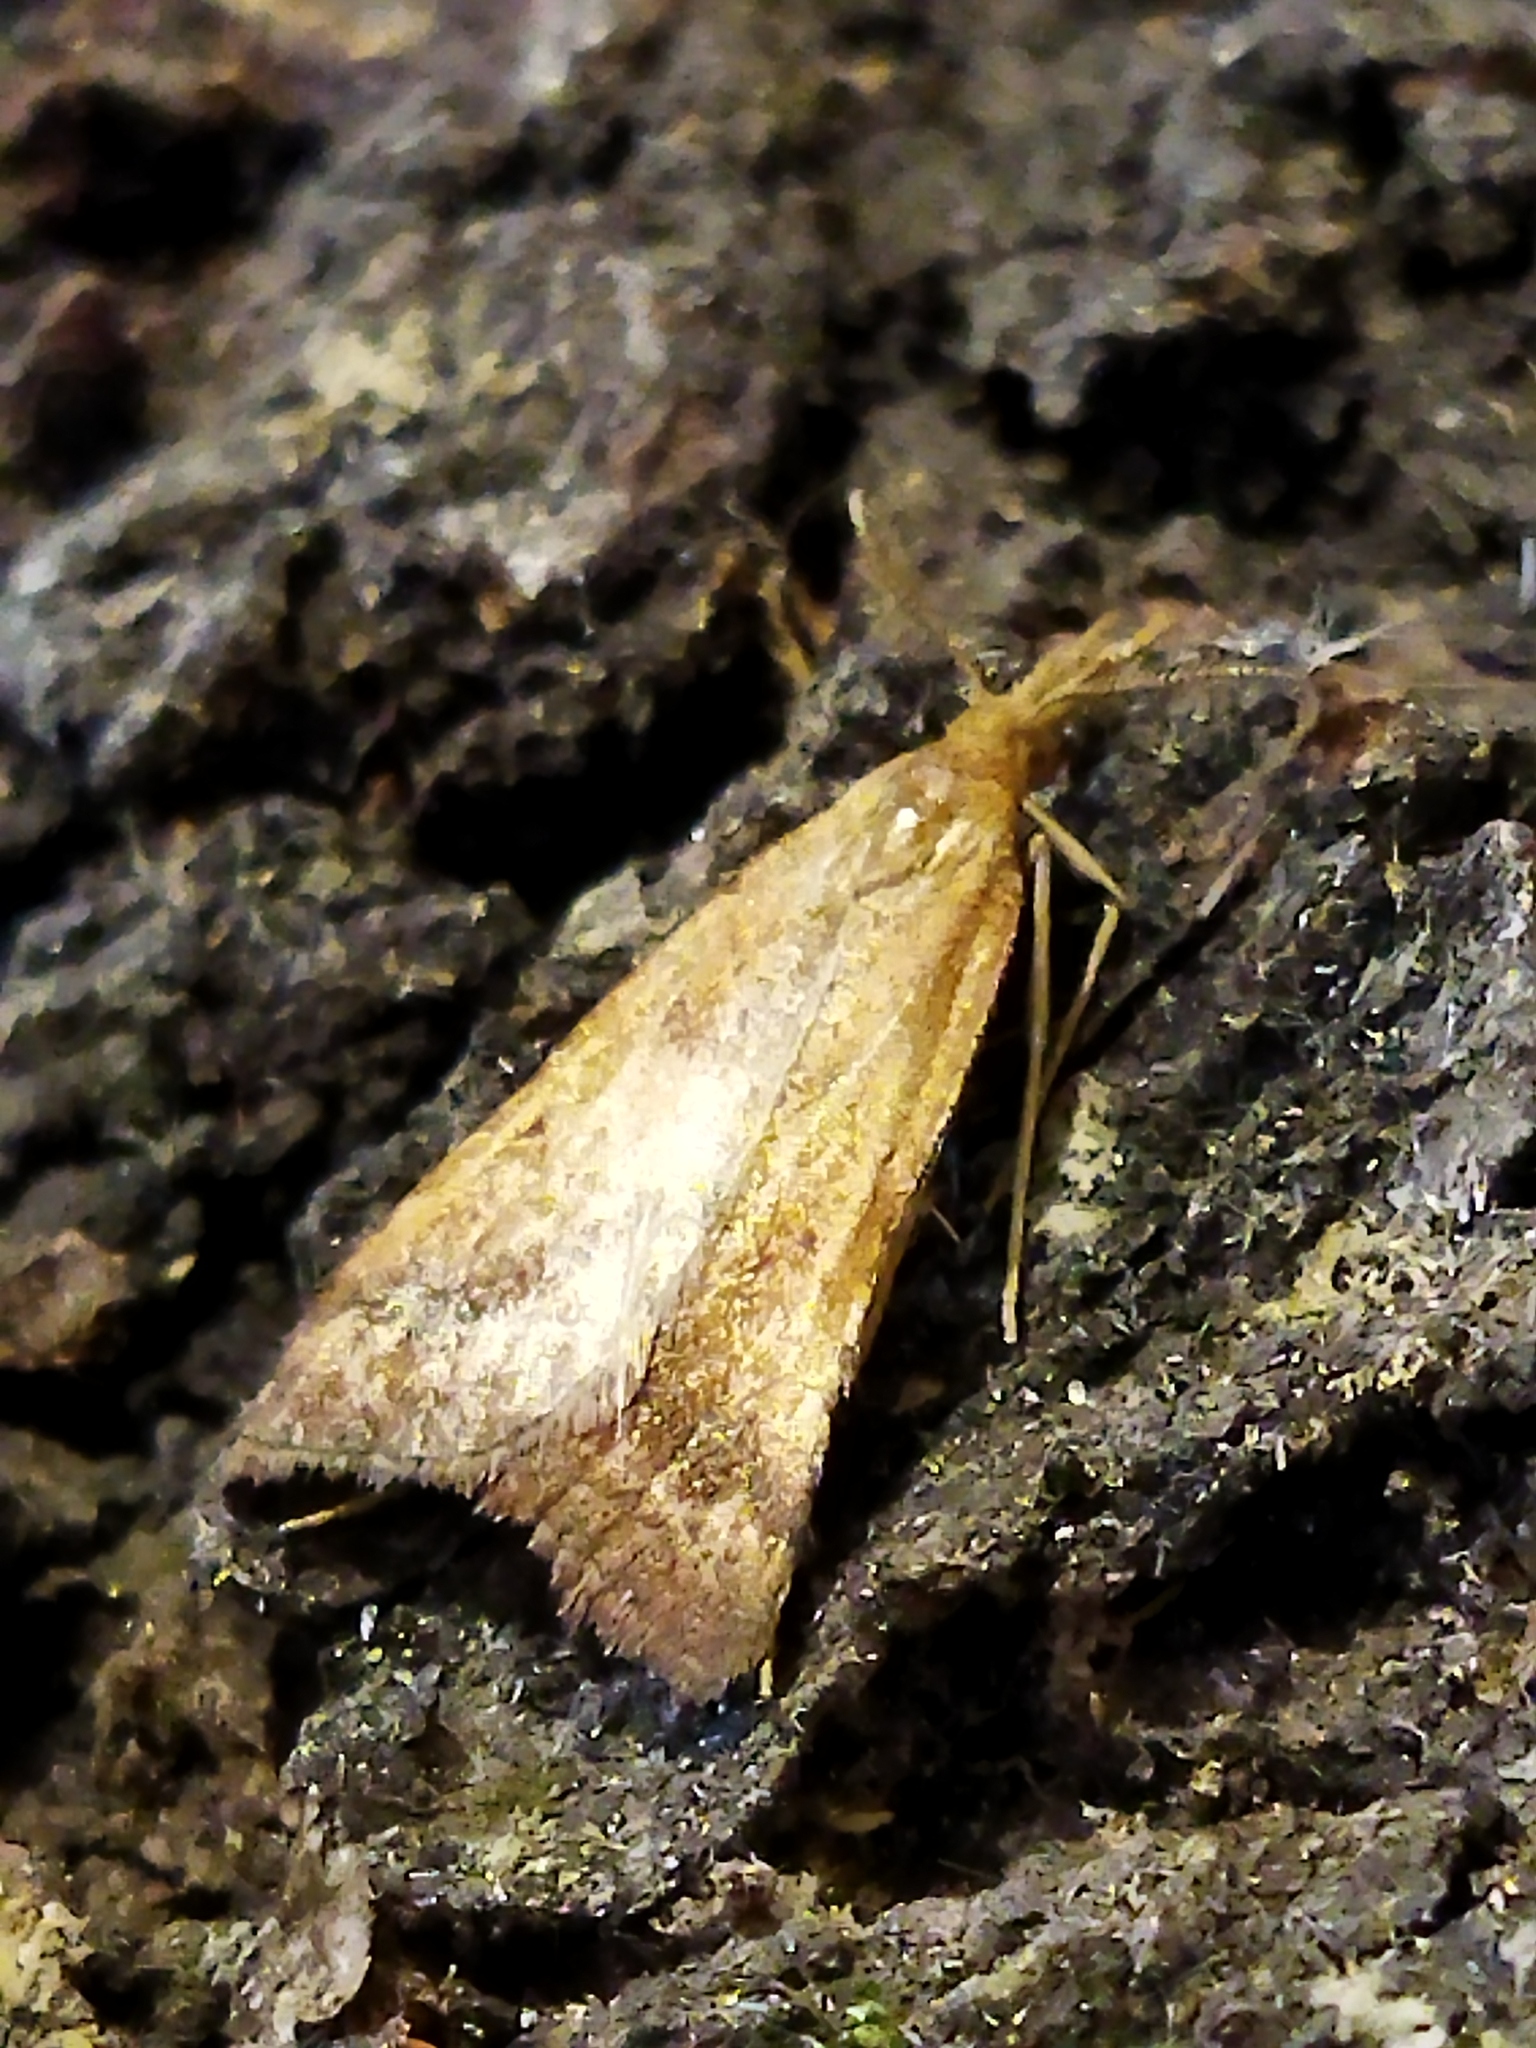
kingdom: Animalia
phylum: Arthropoda
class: Insecta
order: Lepidoptera
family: Pyralidae
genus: Synaphe
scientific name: Synaphe punctalis
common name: Long-legged tabby
